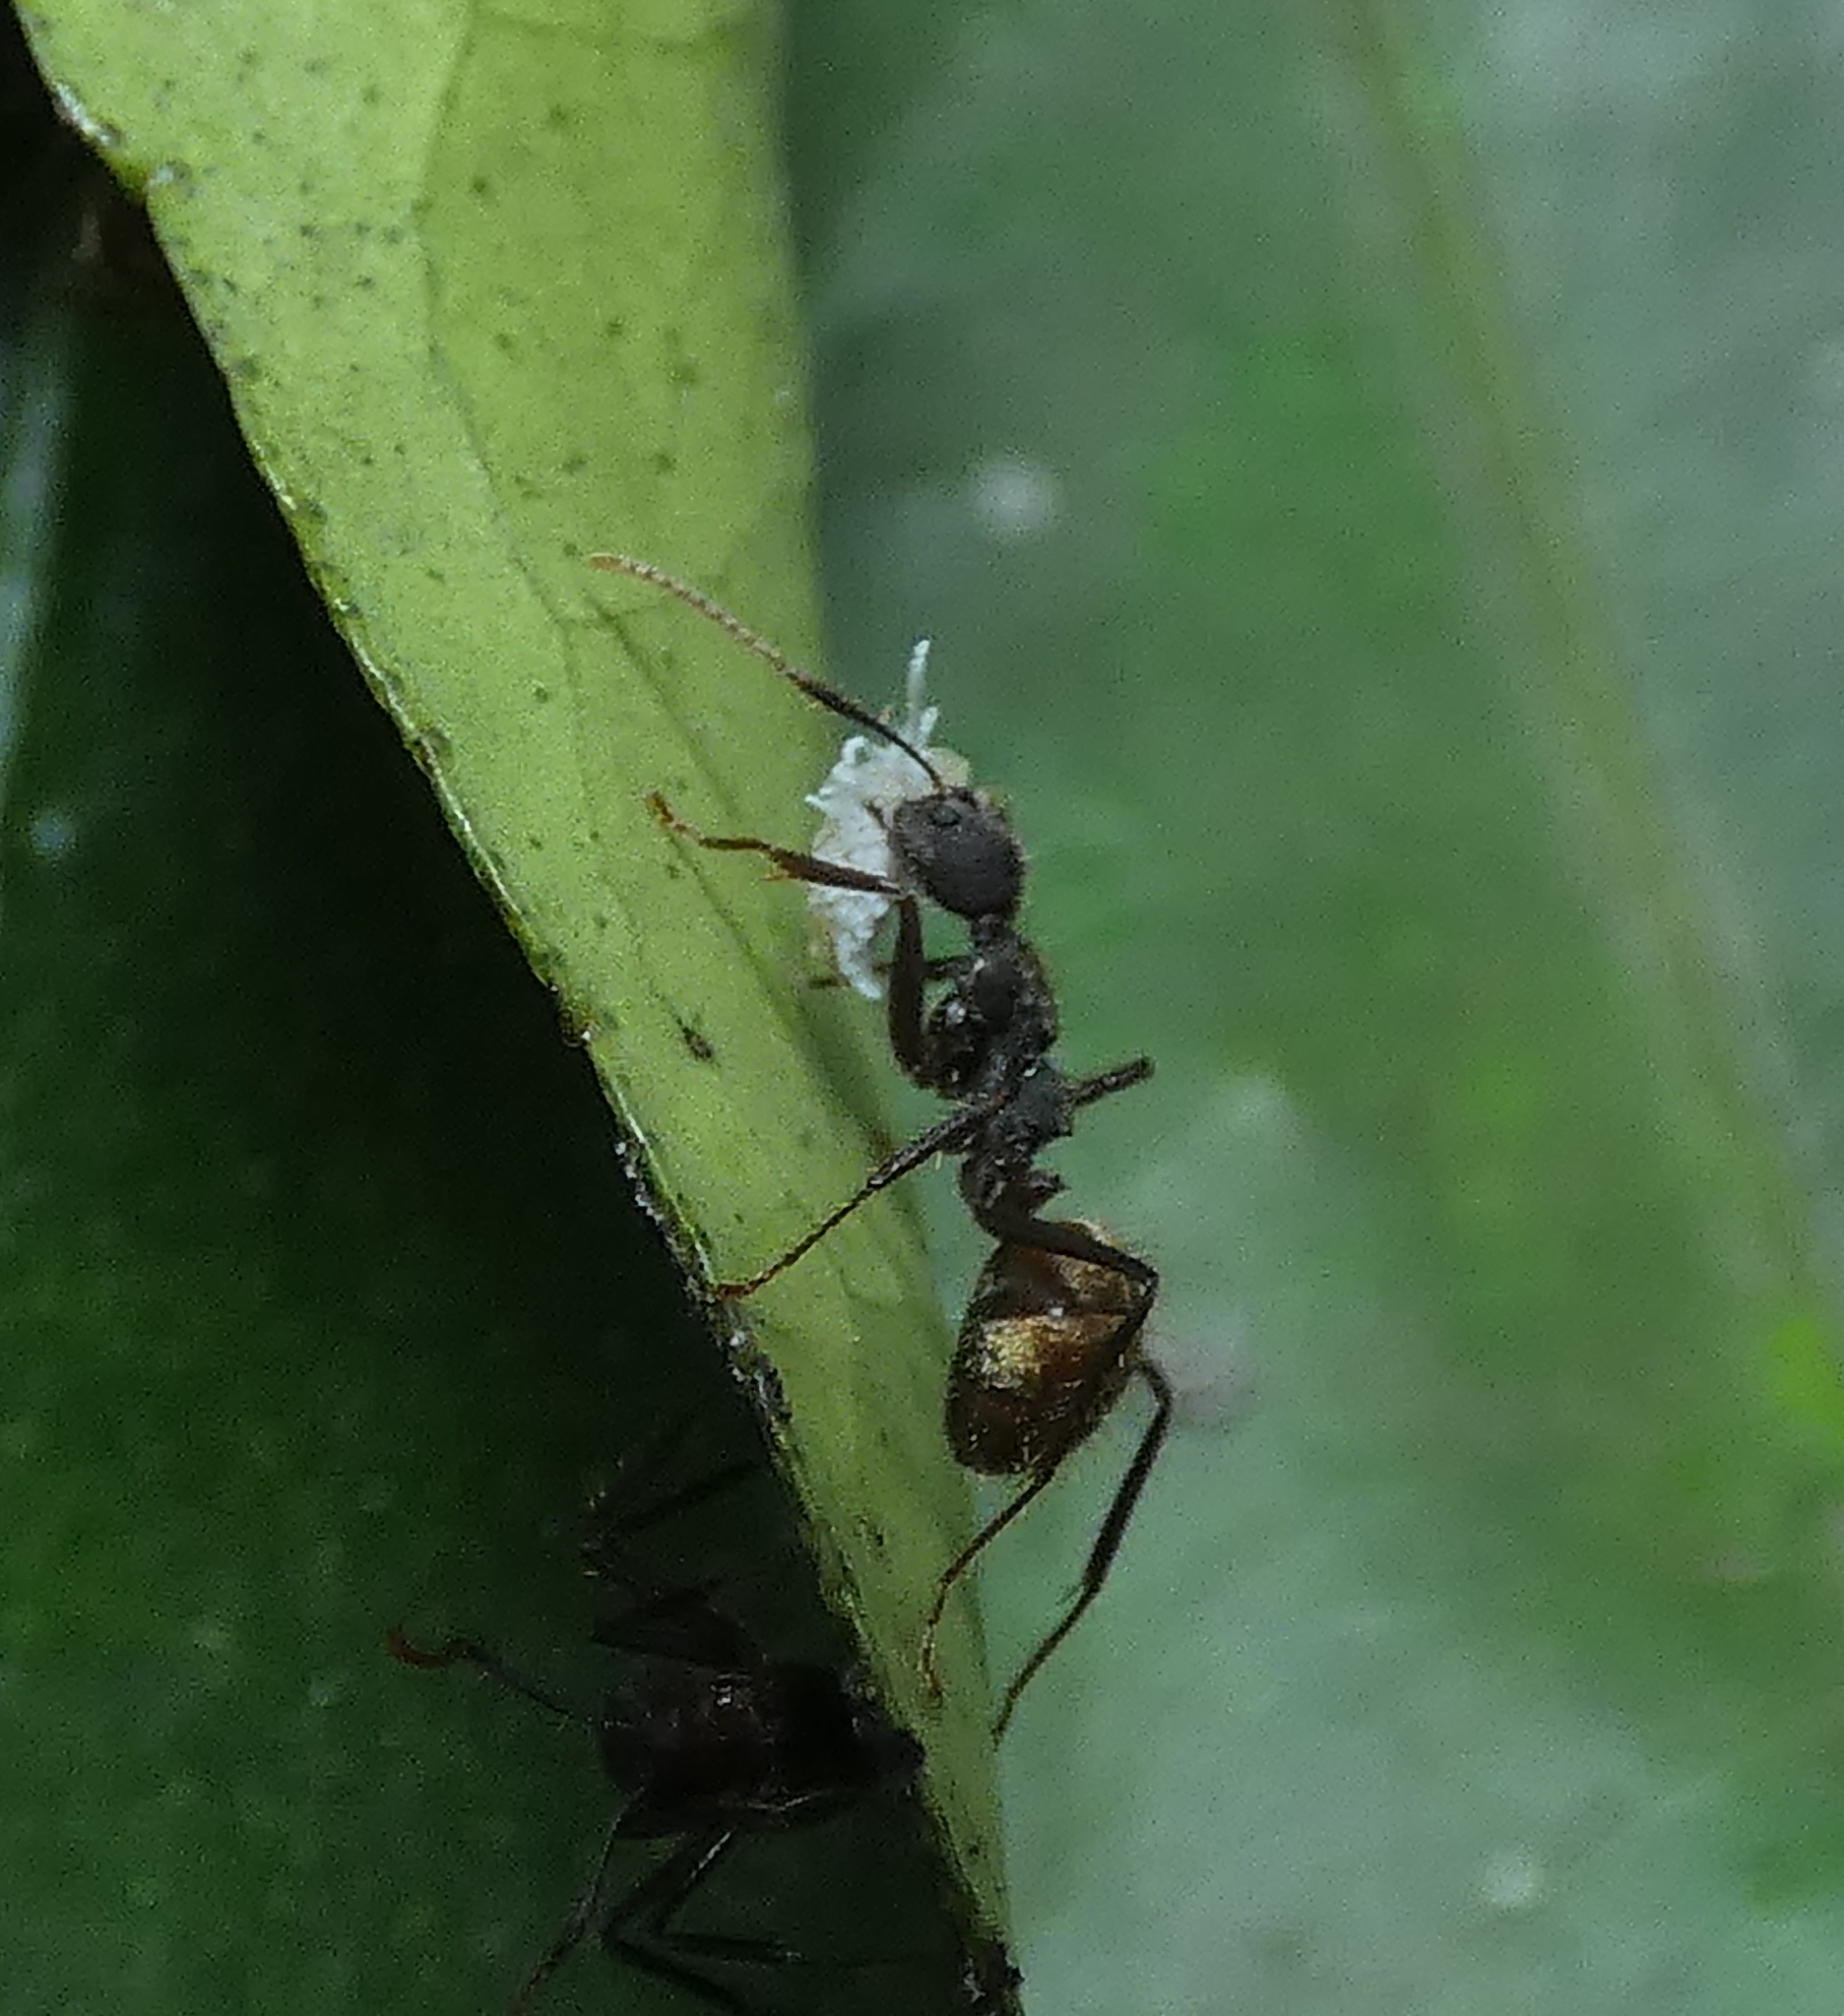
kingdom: Animalia
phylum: Arthropoda
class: Insecta
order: Hymenoptera
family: Formicidae
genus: Dolichoderus
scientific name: Dolichoderus bidens
